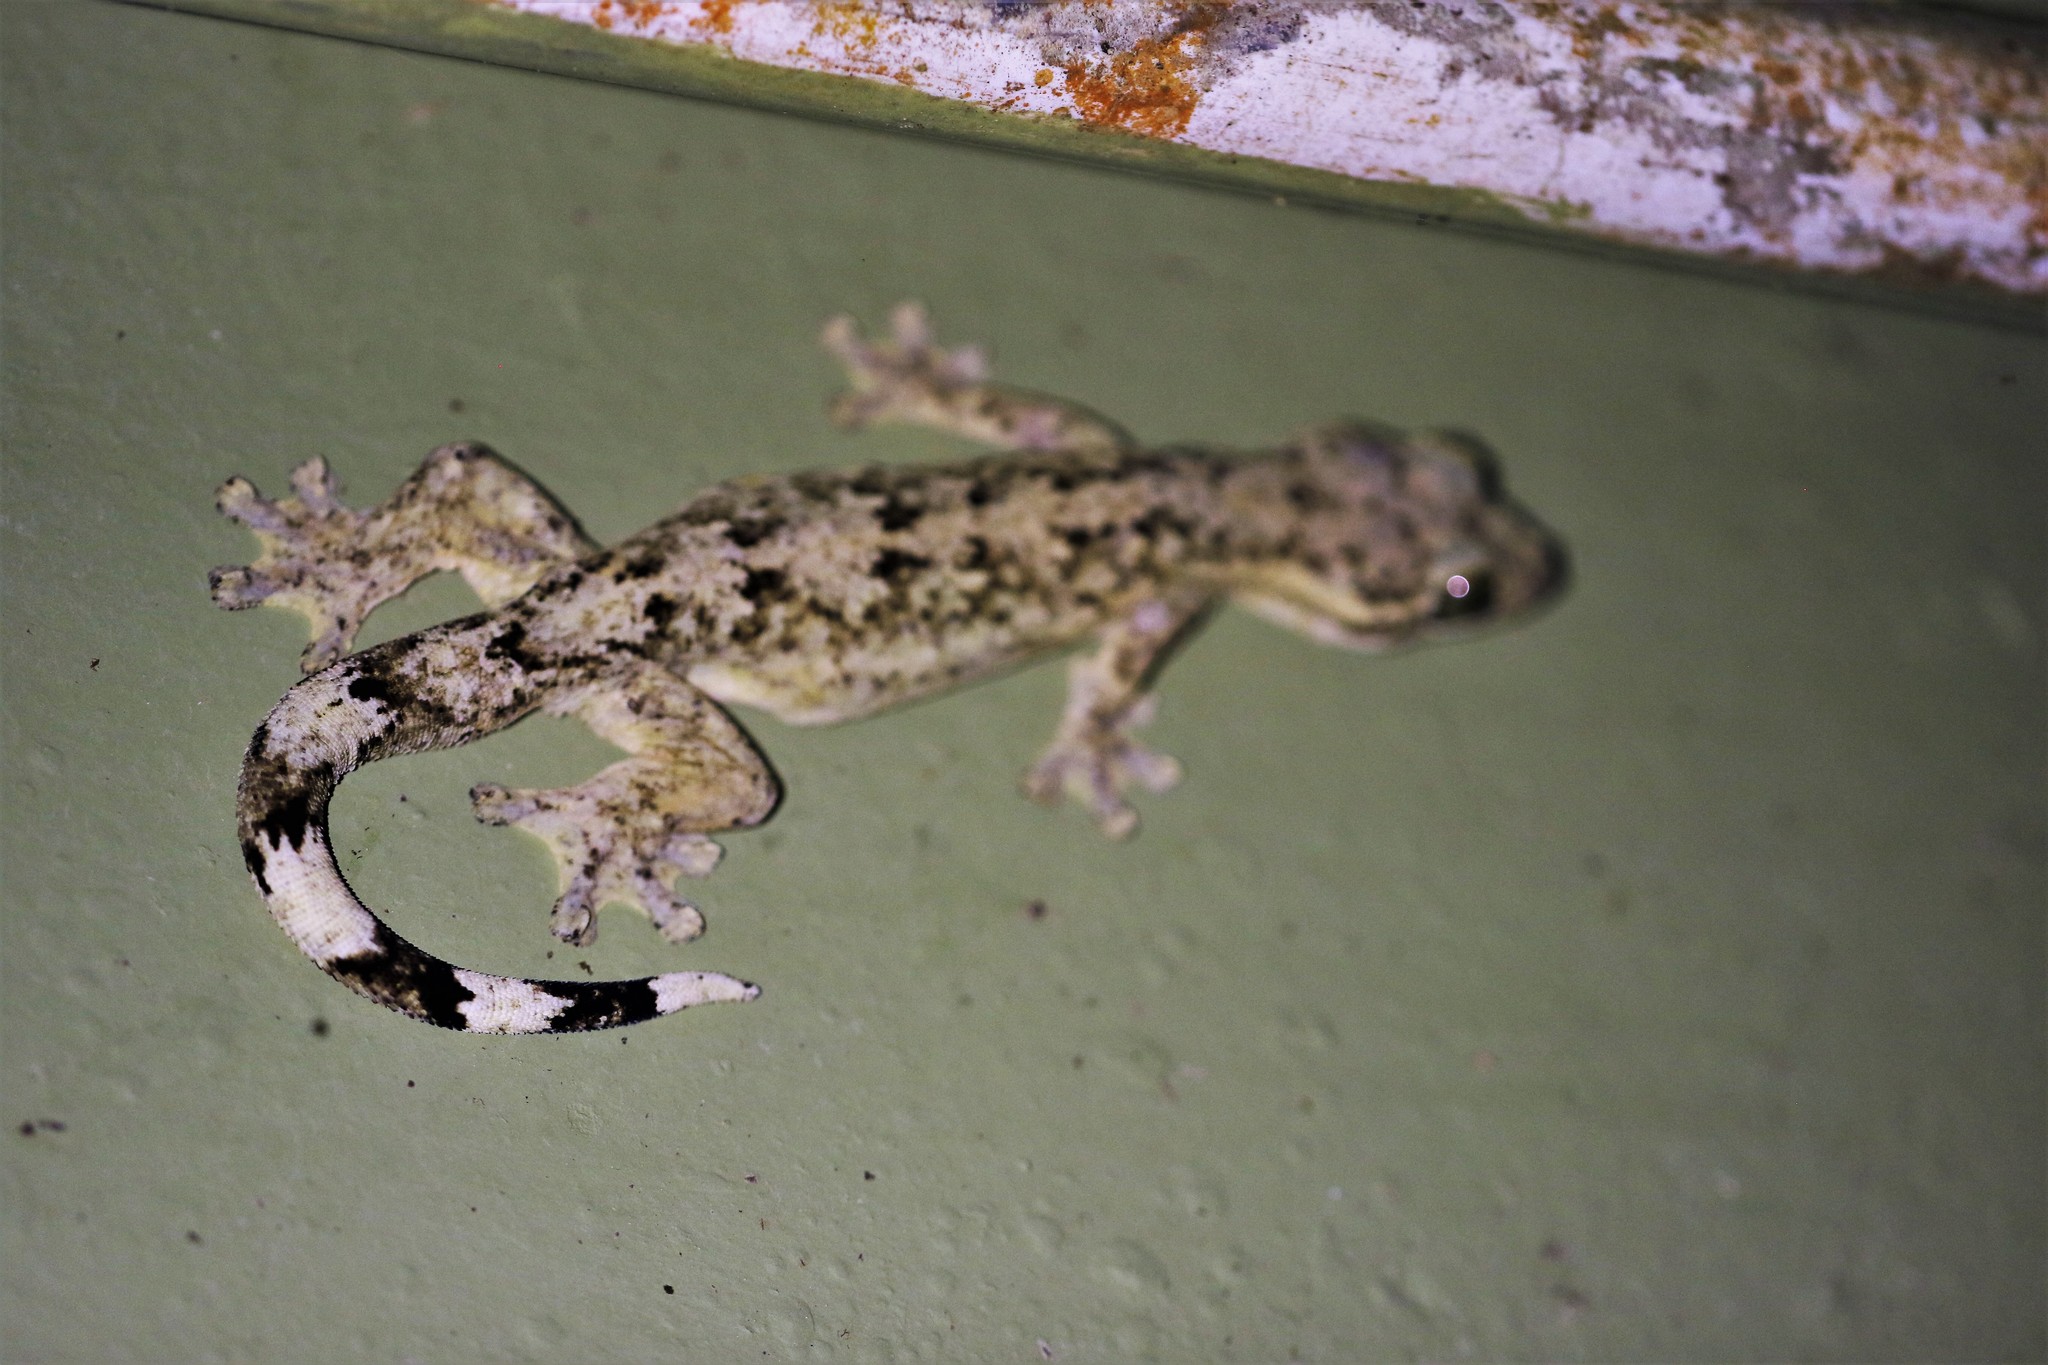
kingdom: Animalia
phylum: Chordata
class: Squamata
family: Phyllodactylidae
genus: Thecadactylus
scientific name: Thecadactylus rapicauda
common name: Turnip-tailed gecko
